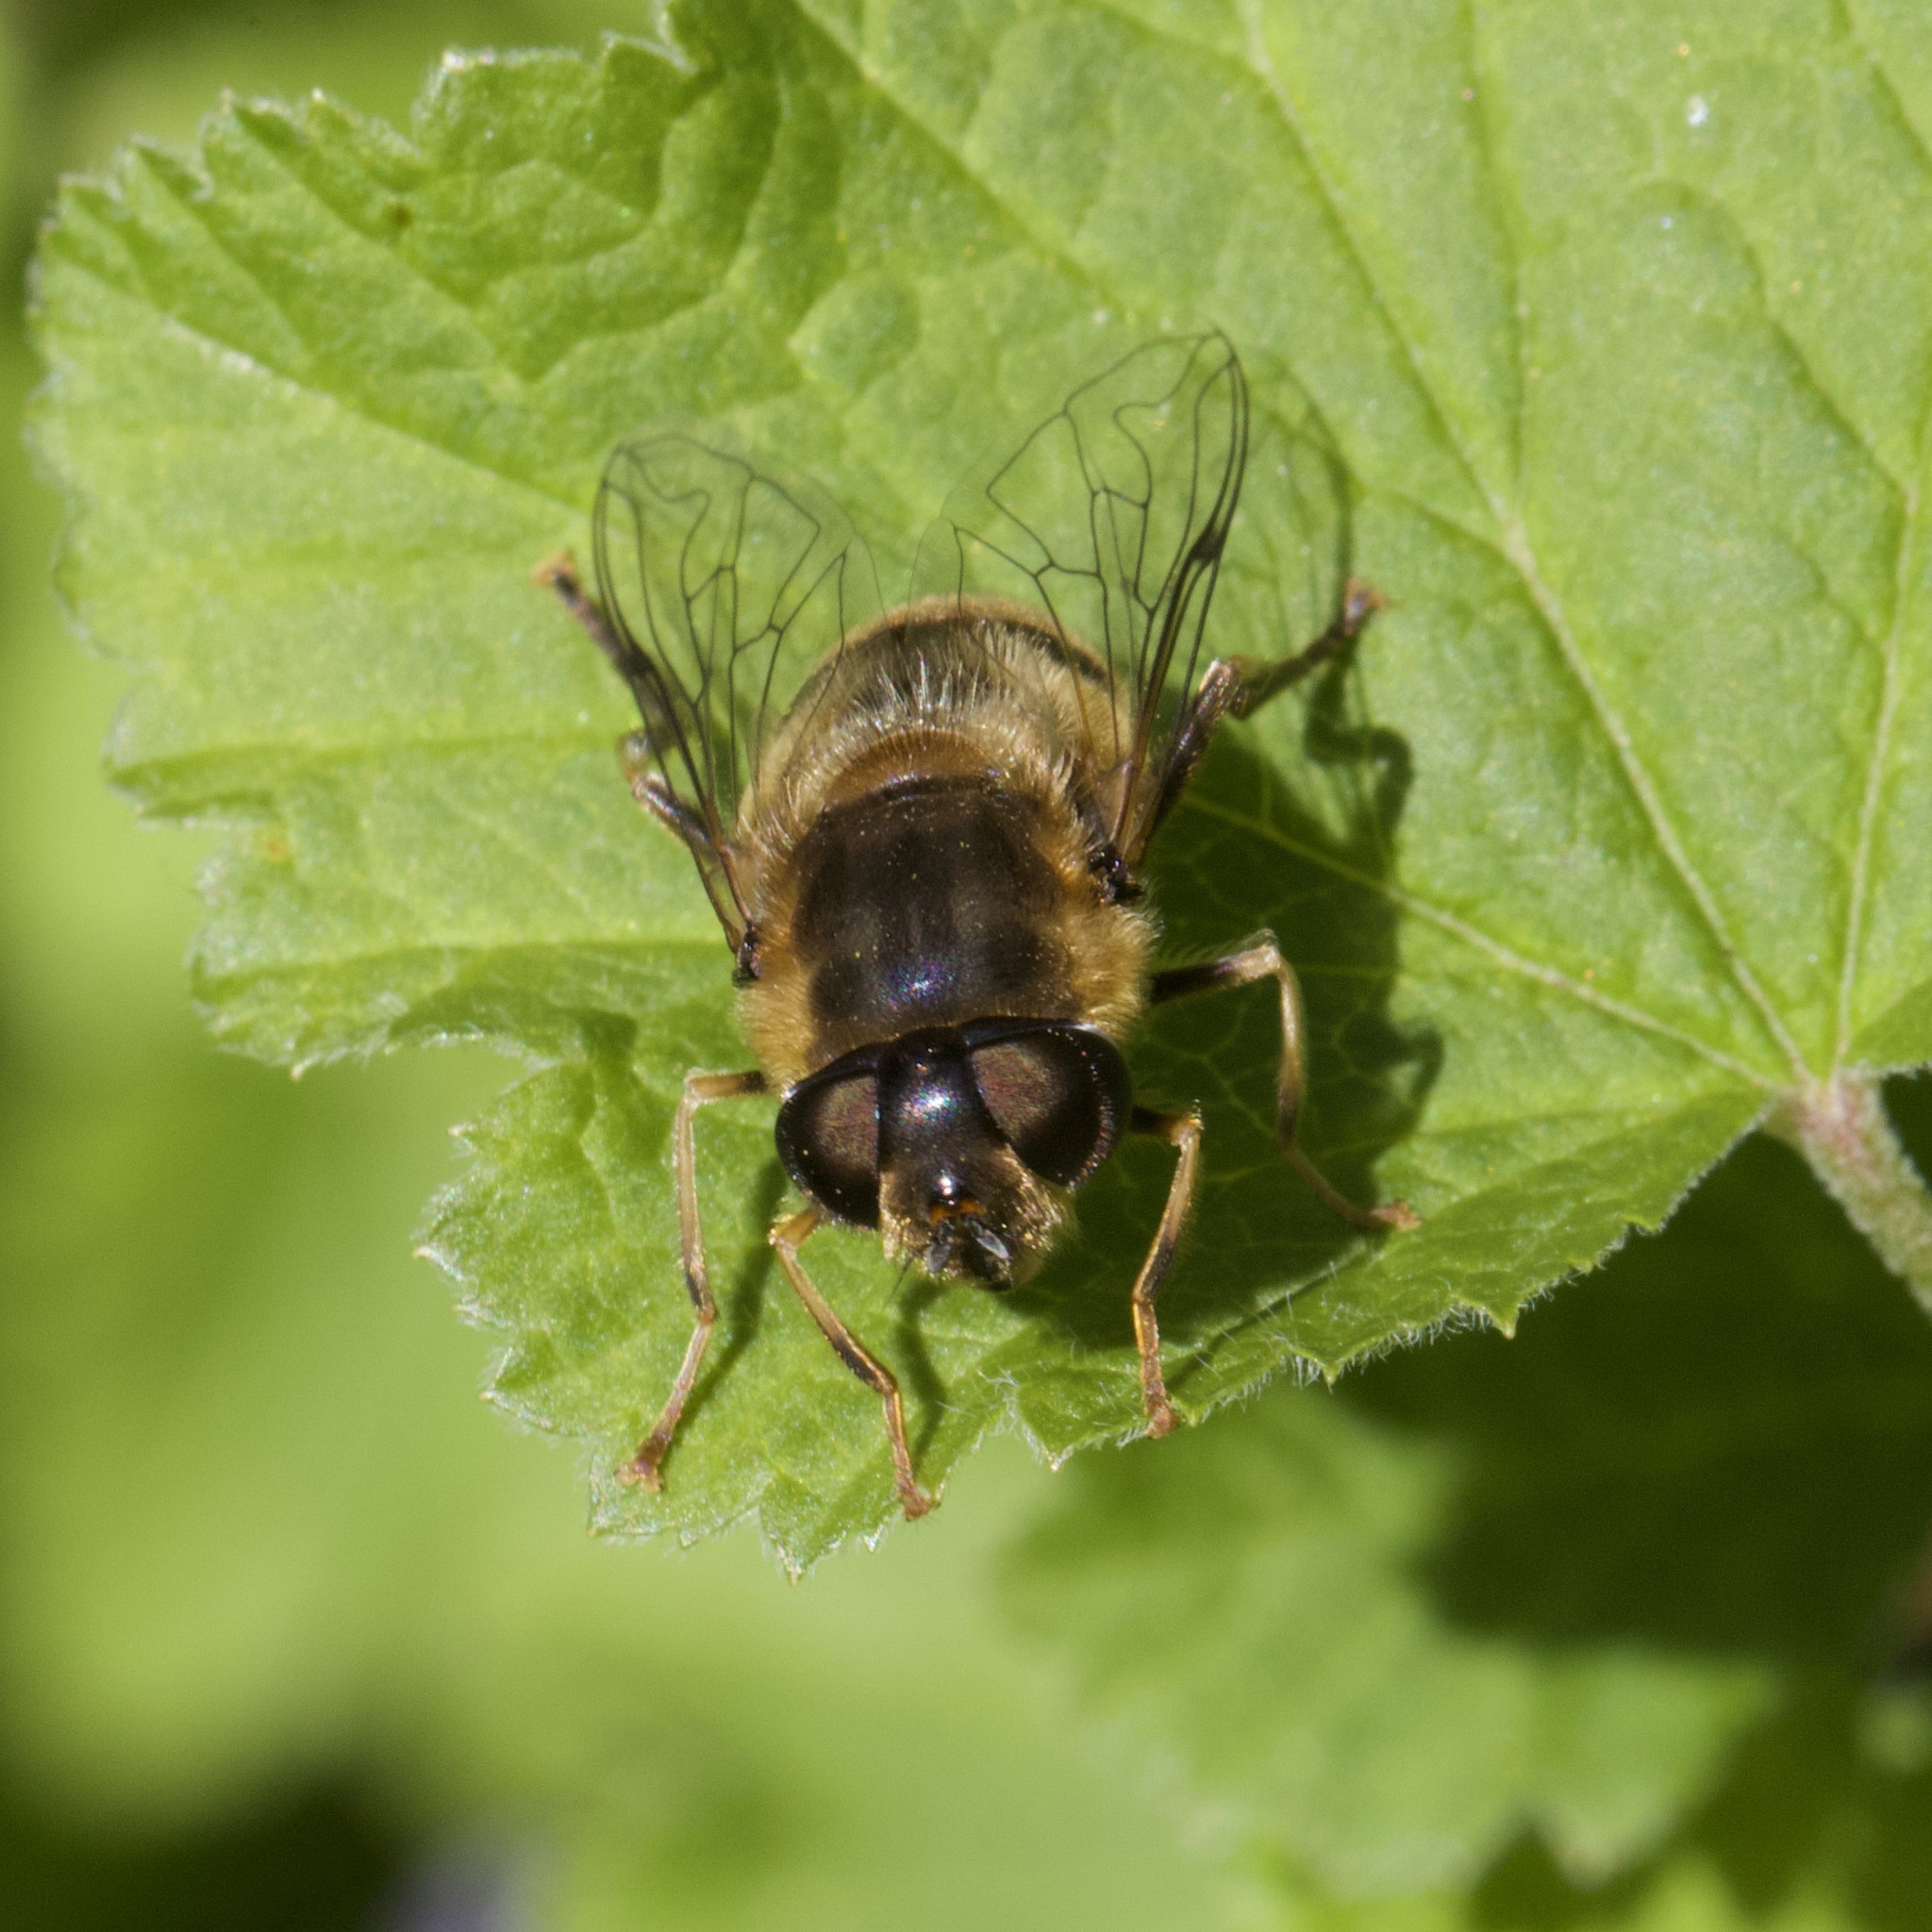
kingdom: Animalia
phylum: Arthropoda
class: Insecta
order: Diptera
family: Syrphidae
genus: Eristalis
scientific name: Eristalis pertinax
